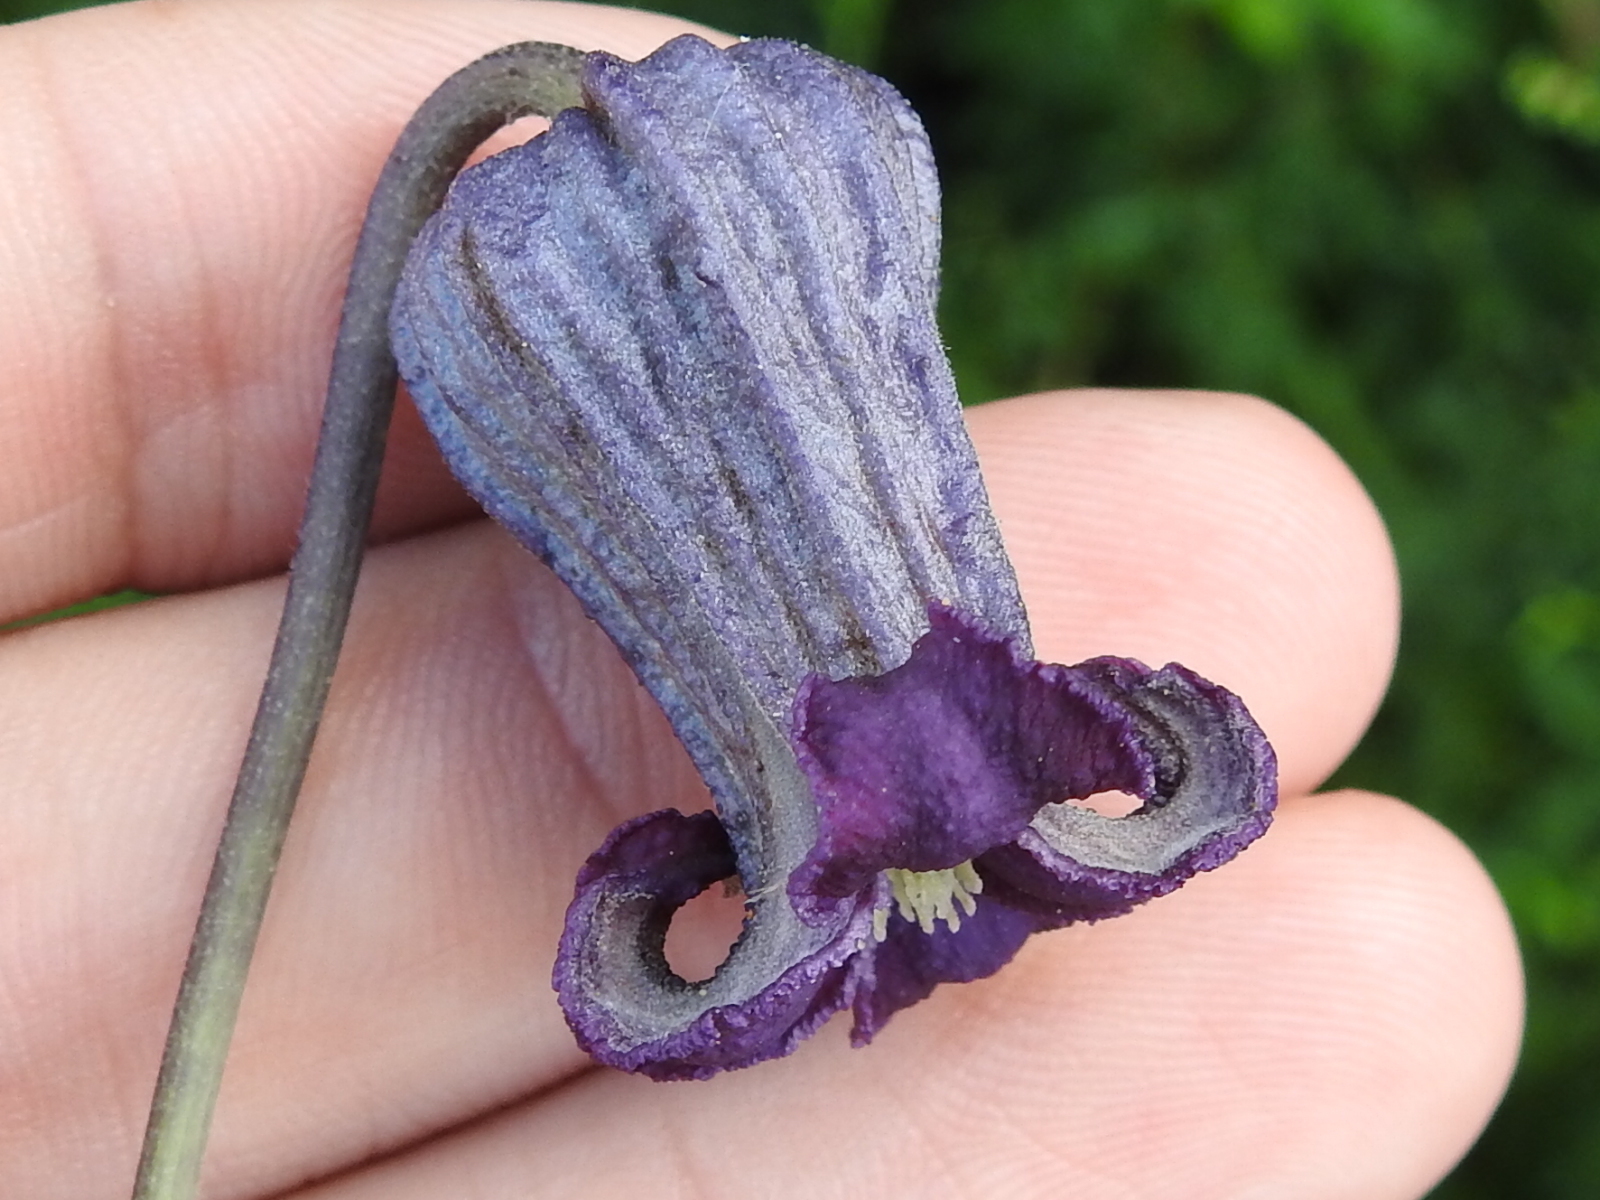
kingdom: Plantae
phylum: Tracheophyta
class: Magnoliopsida
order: Ranunculales
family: Ranunculaceae
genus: Clematis
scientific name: Clematis pitcheri
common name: Bellflower clematis
